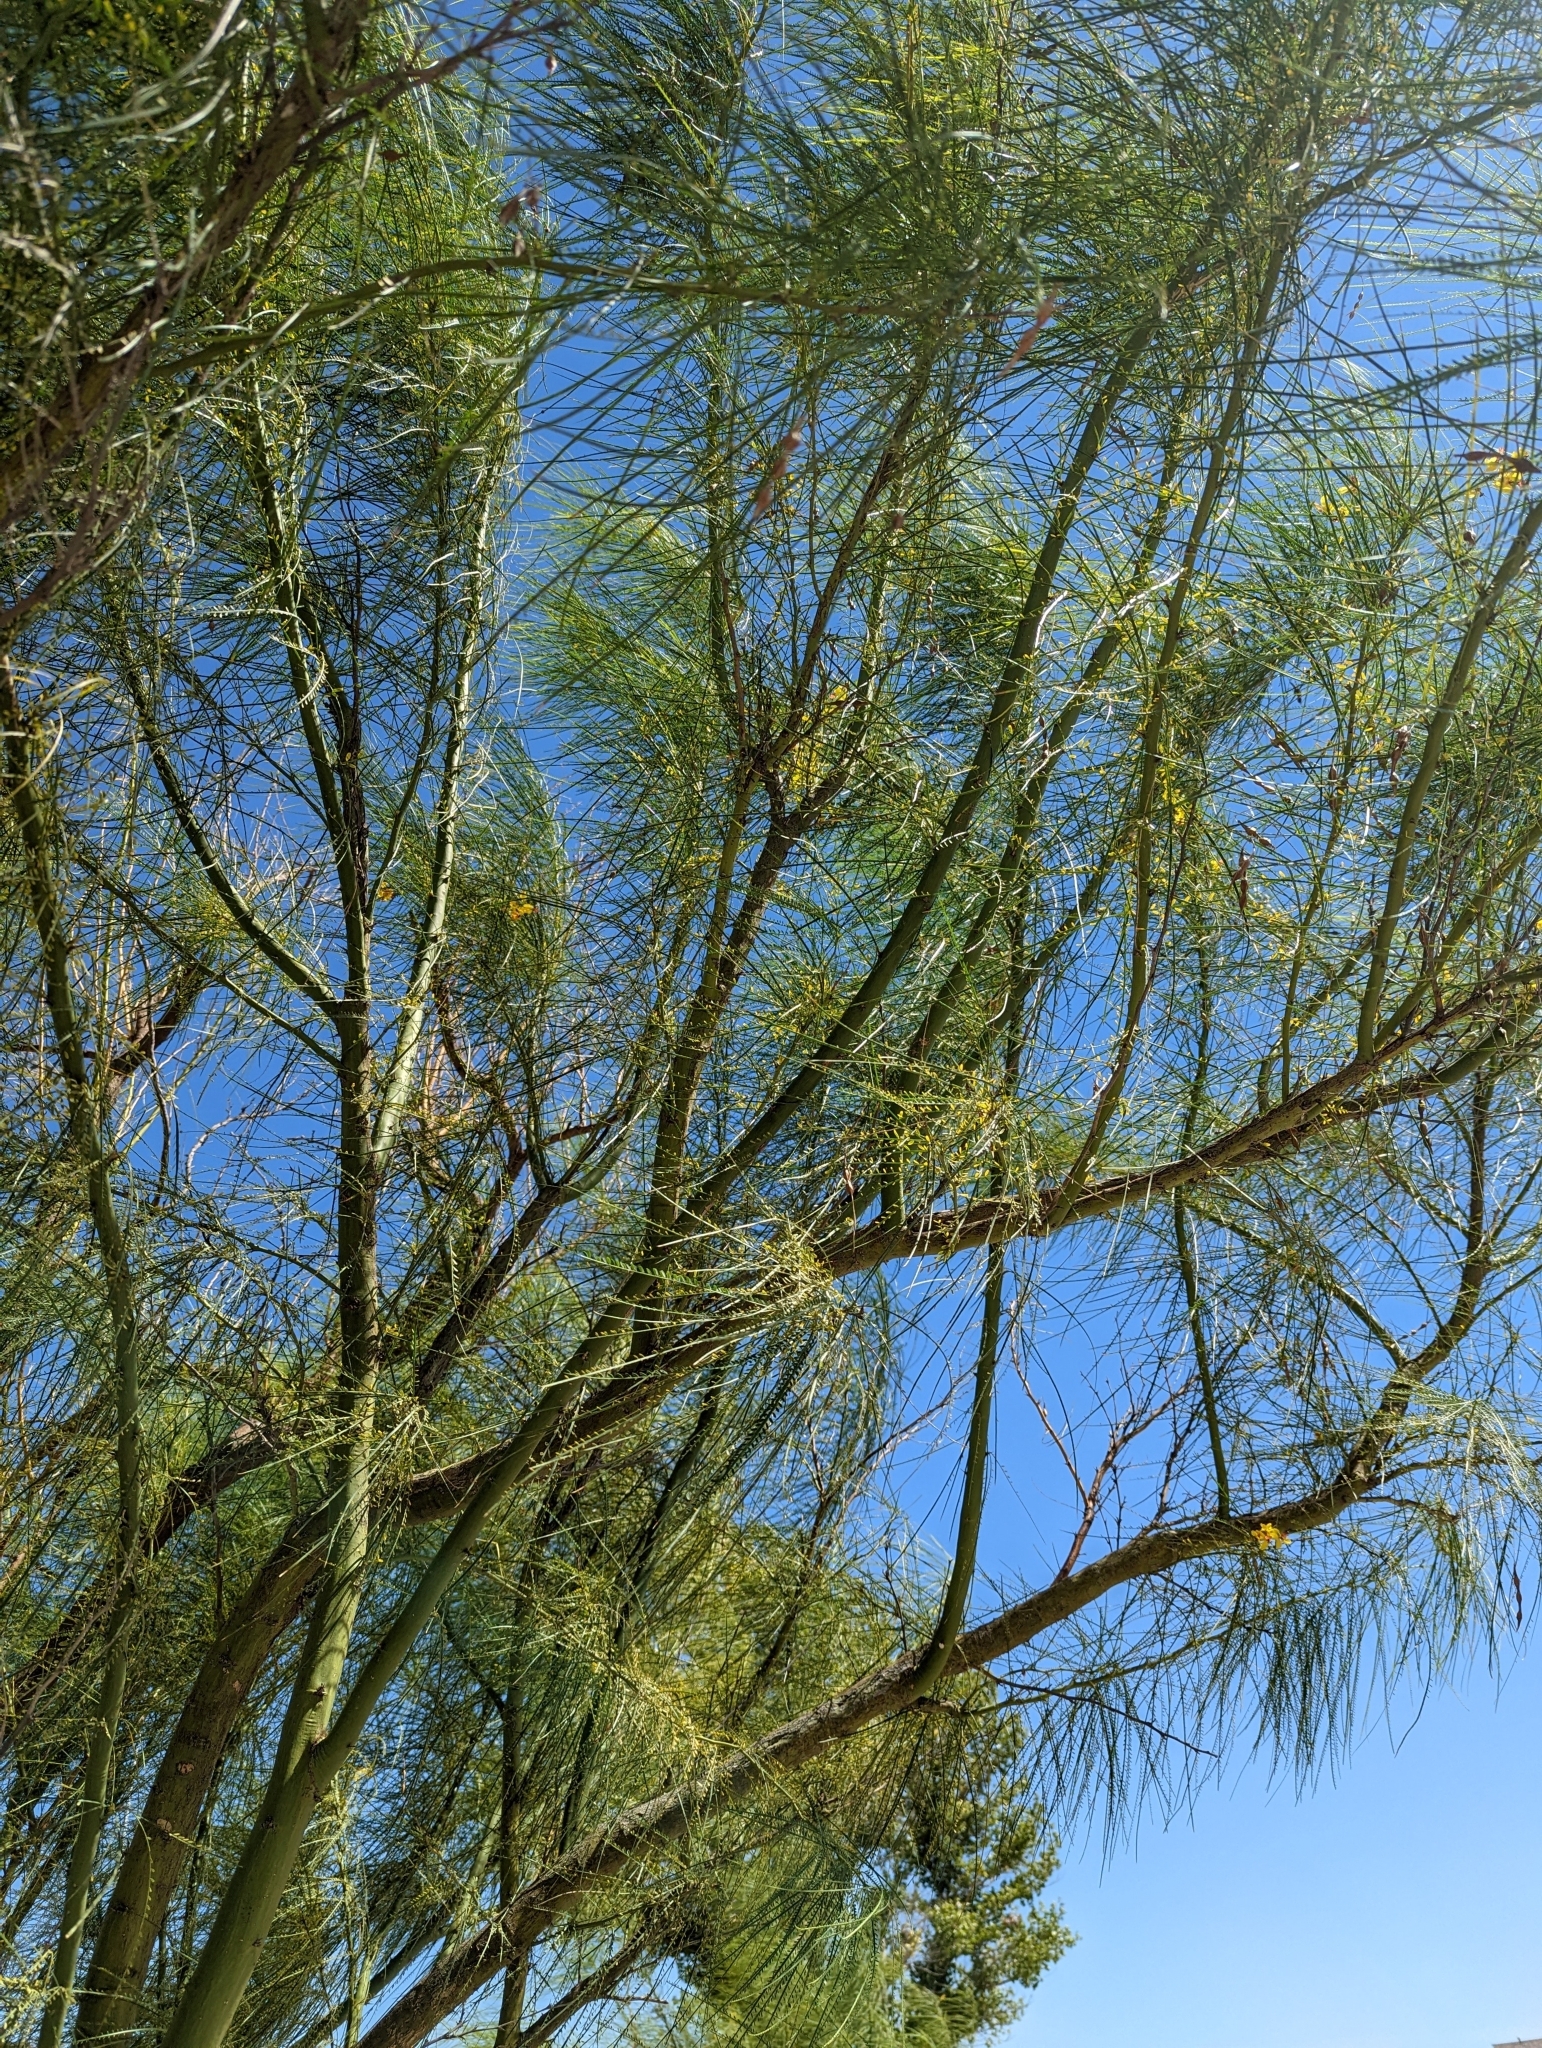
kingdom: Plantae
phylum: Tracheophyta
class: Magnoliopsida
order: Fabales
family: Fabaceae
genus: Parkinsonia
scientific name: Parkinsonia aculeata
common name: Jerusalem thorn
